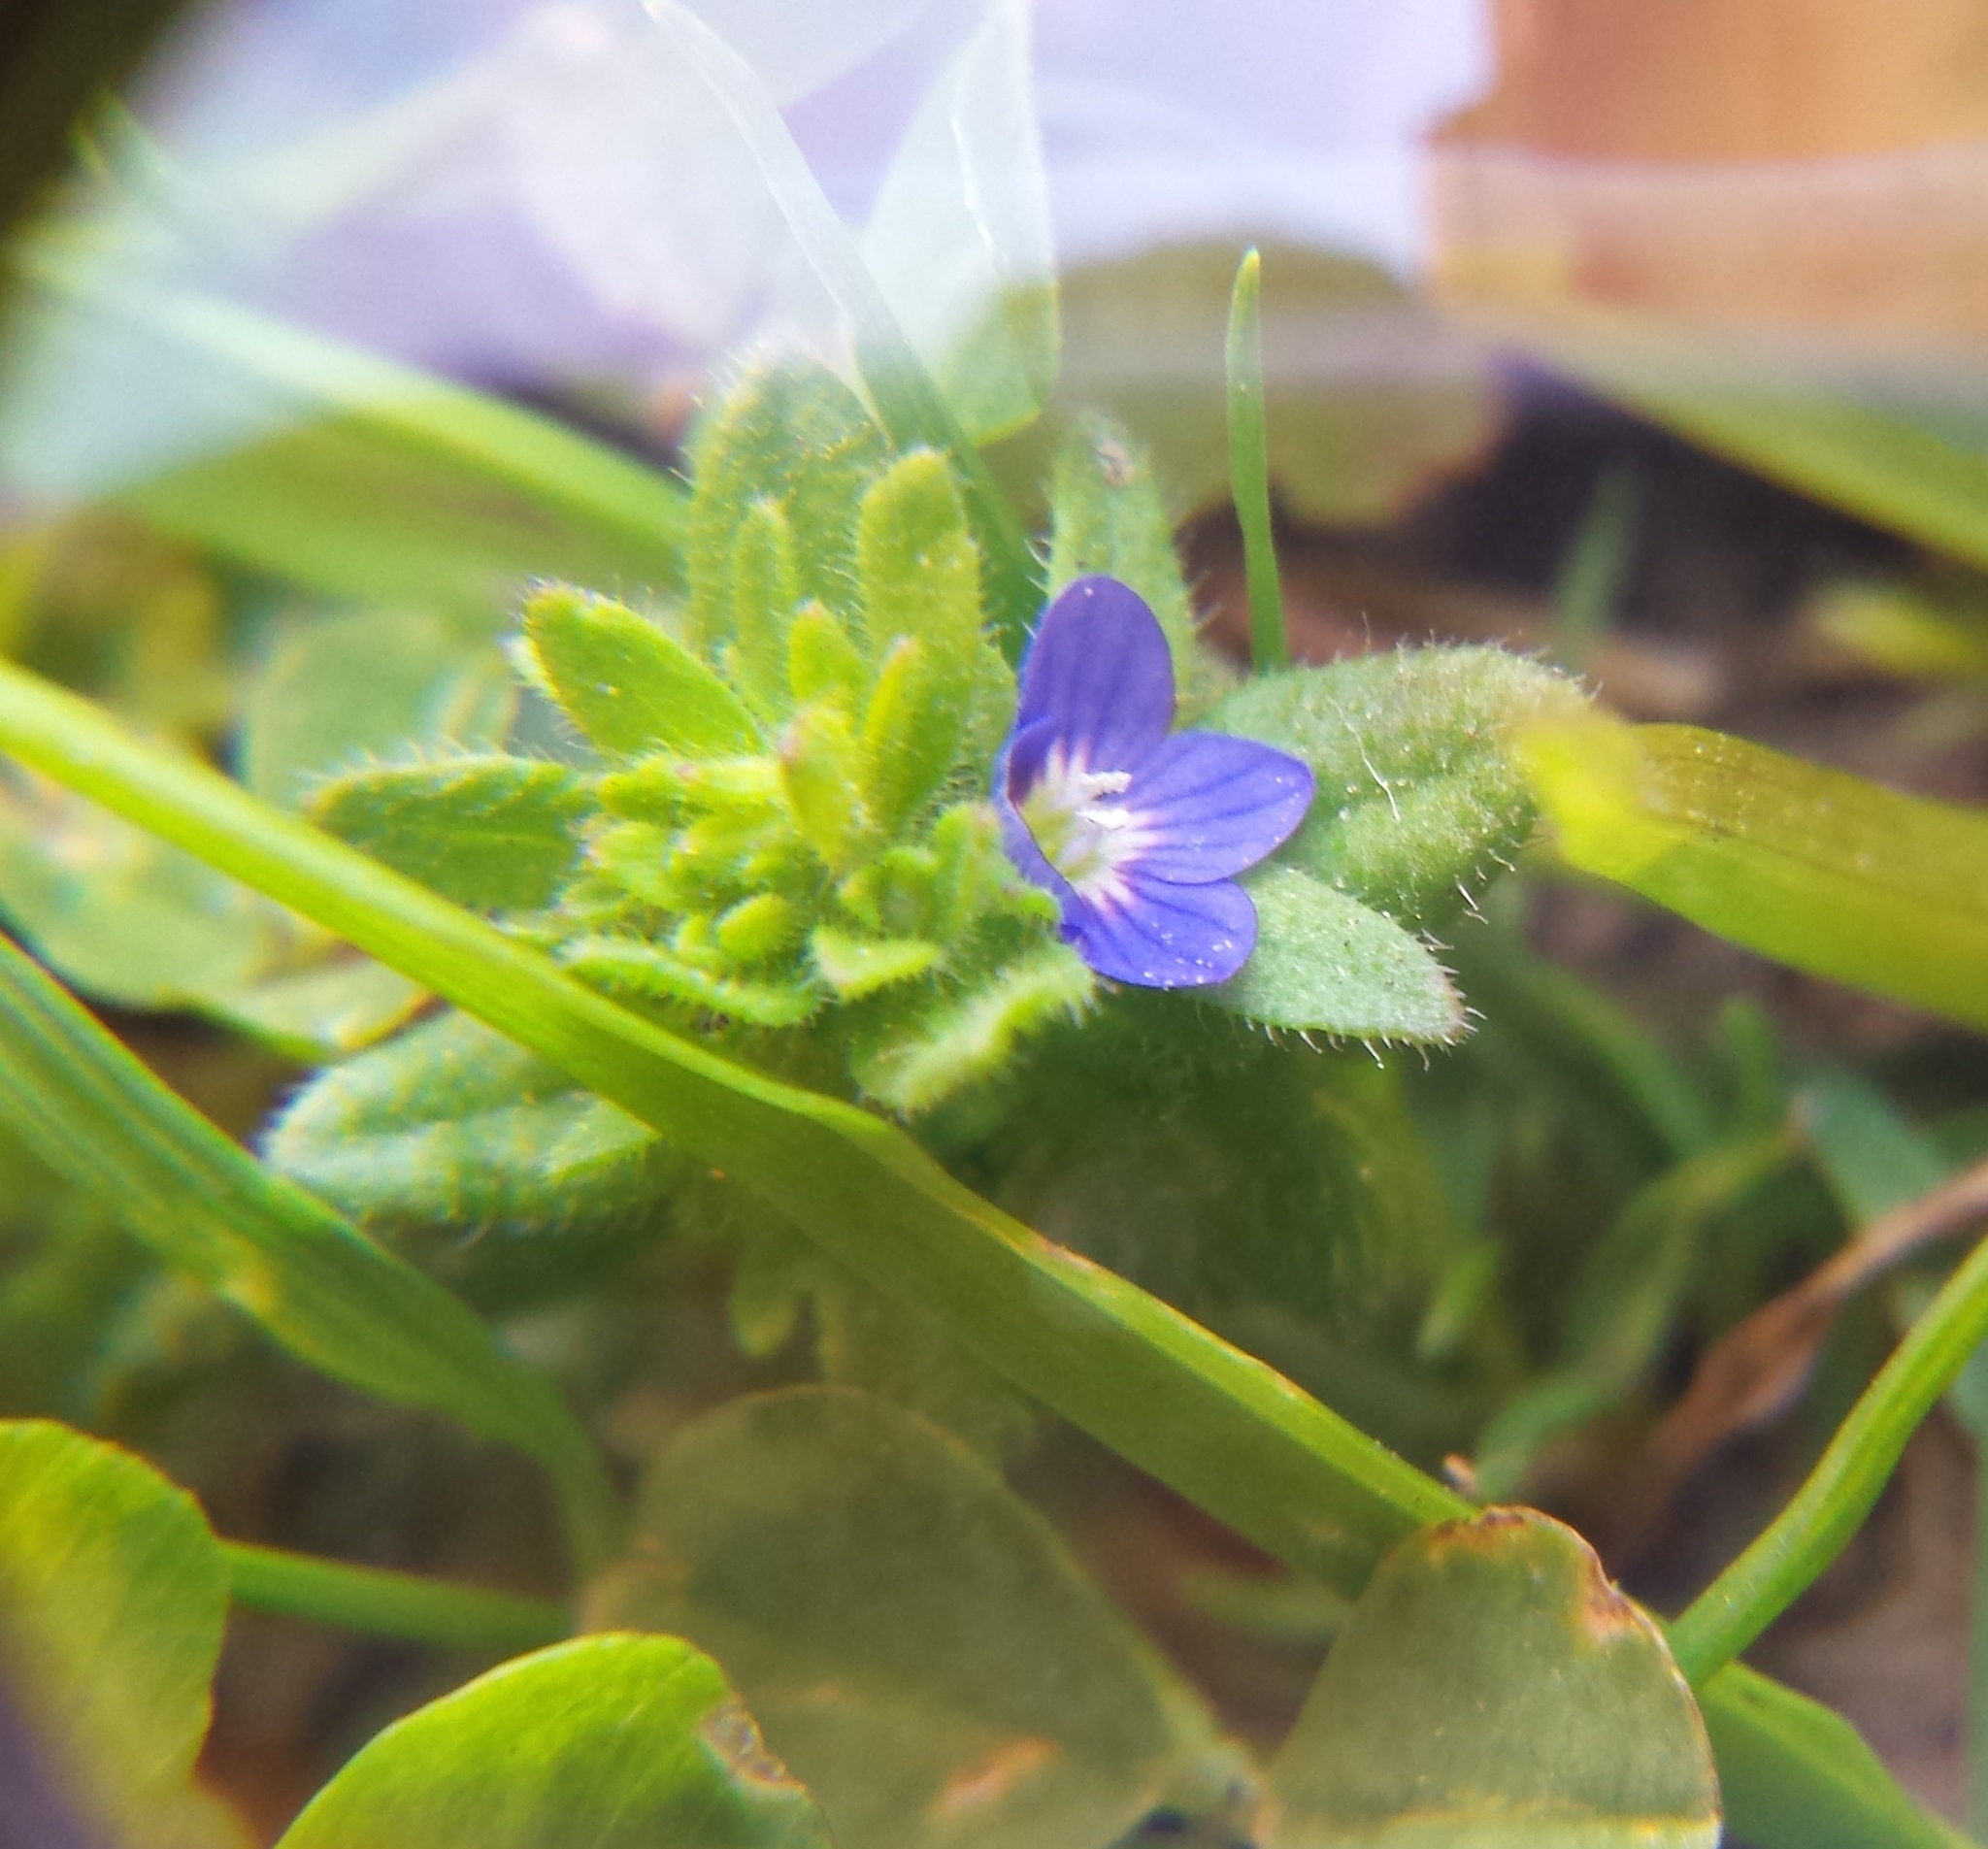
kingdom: Plantae
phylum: Tracheophyta
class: Magnoliopsida
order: Lamiales
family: Plantaginaceae
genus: Veronica
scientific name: Veronica arvensis
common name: Corn speedwell
